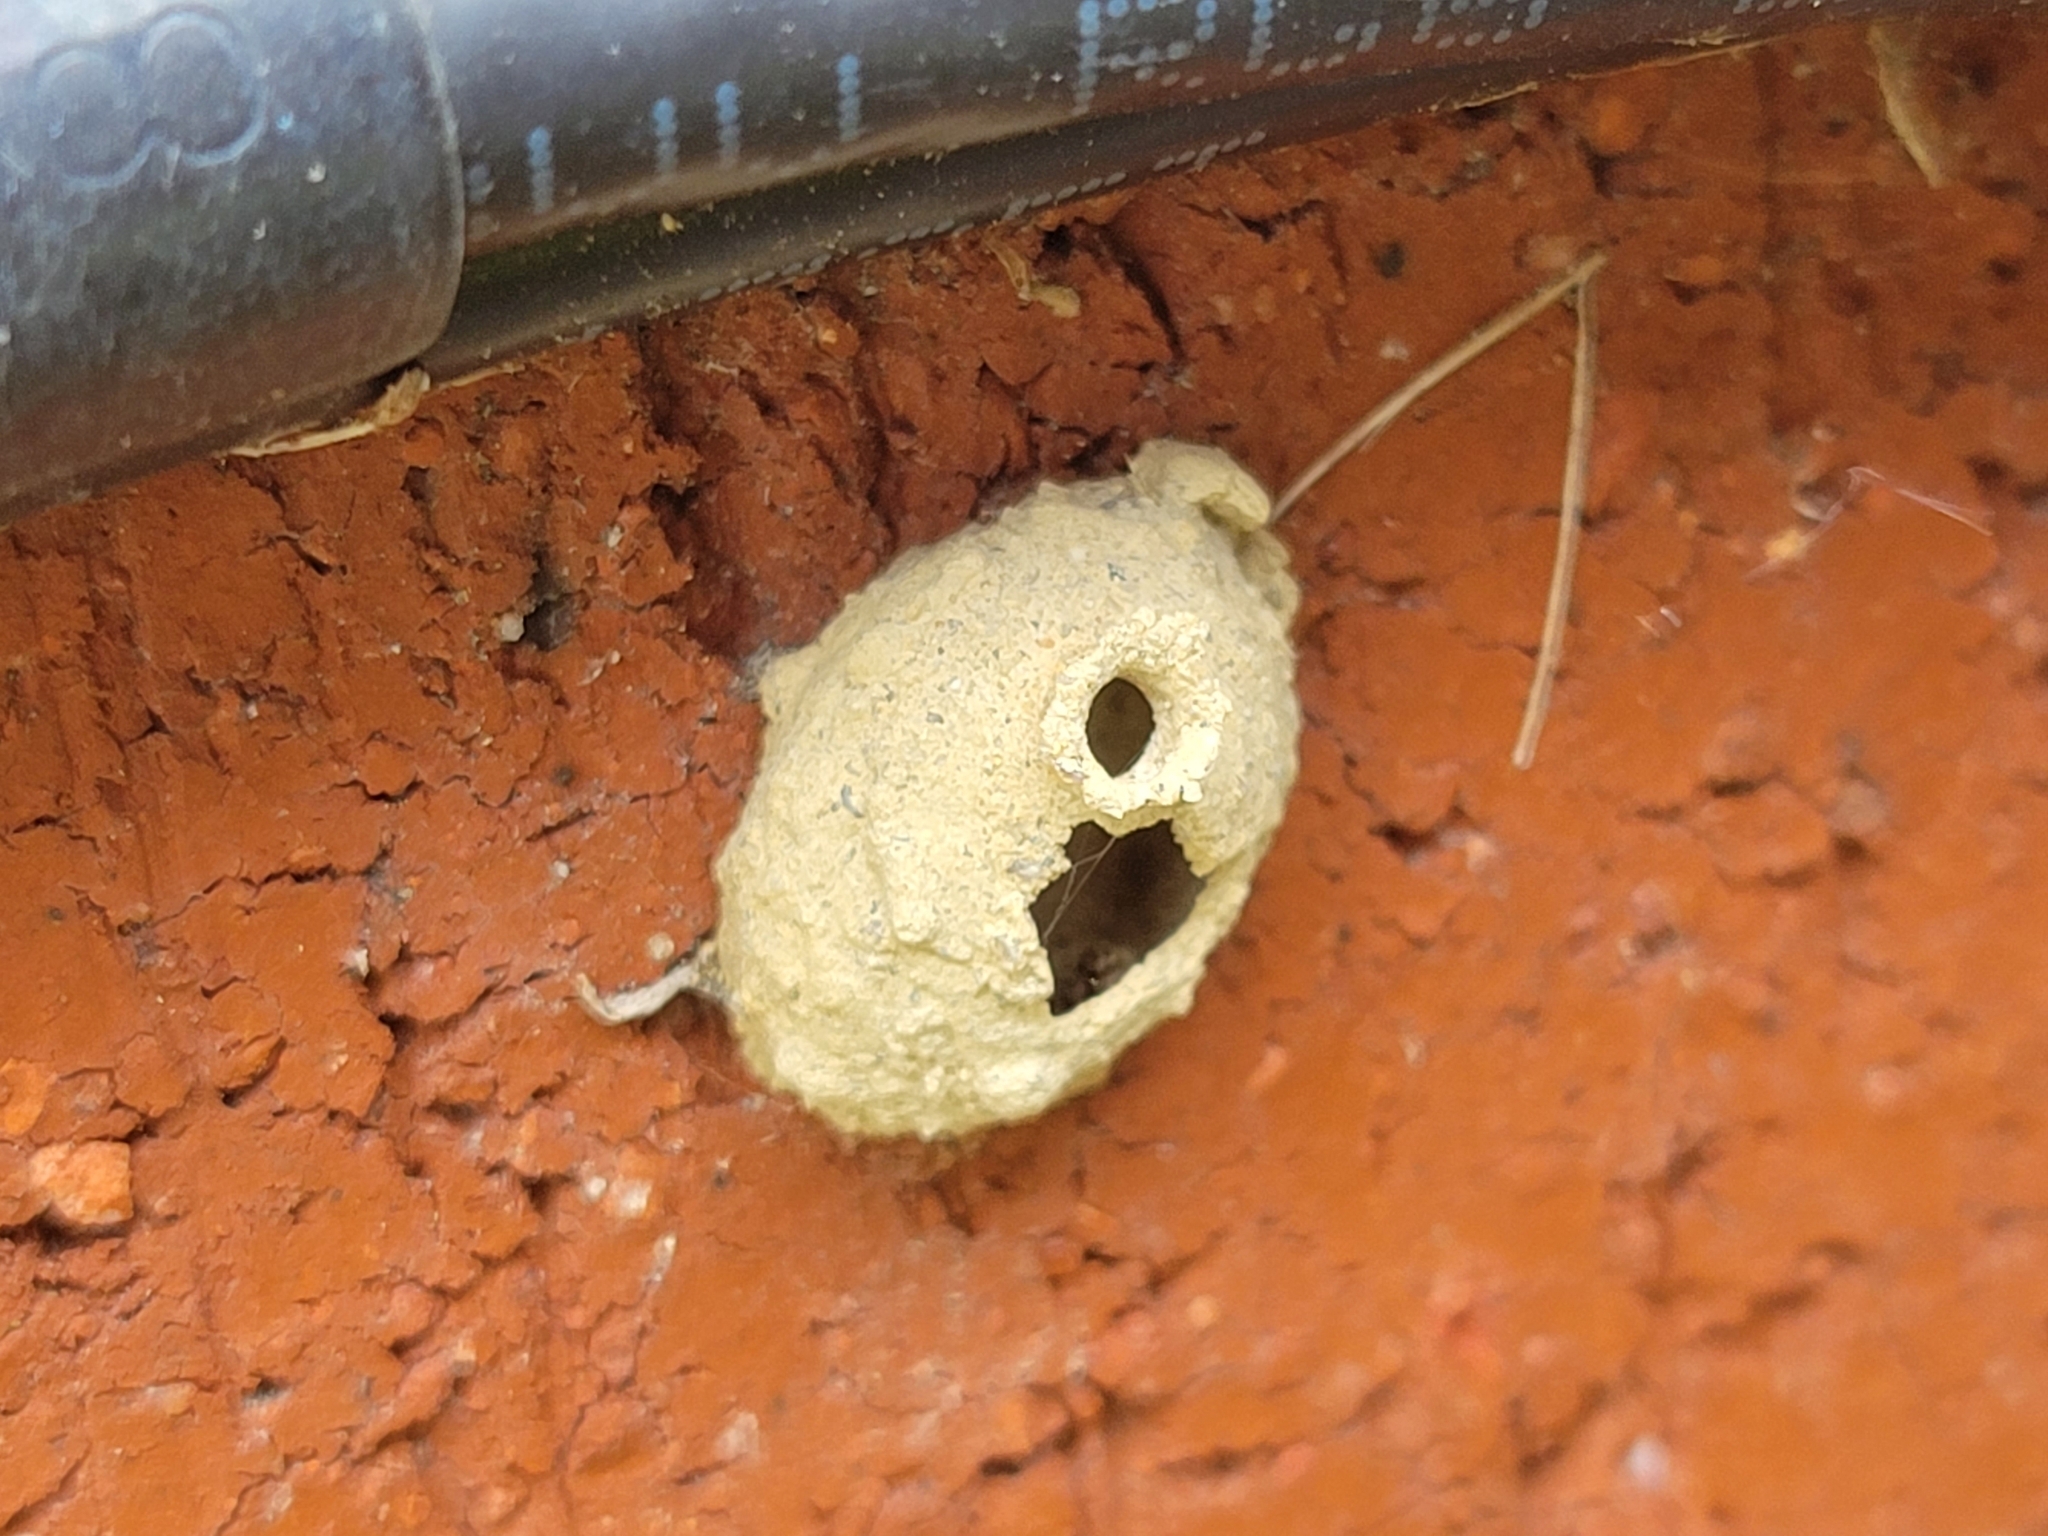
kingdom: Animalia
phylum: Arthropoda
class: Insecta
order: Hymenoptera
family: Vespidae
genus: Eumenes
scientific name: Eumenes fraternus
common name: Fraternal potter wasp
